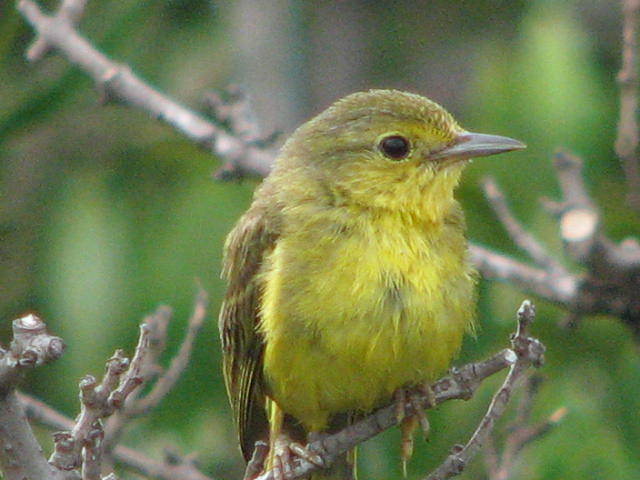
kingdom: Animalia
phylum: Chordata
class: Aves
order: Passeriformes
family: Parulidae
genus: Setophaga
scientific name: Setophaga petechia
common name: Yellow warbler
